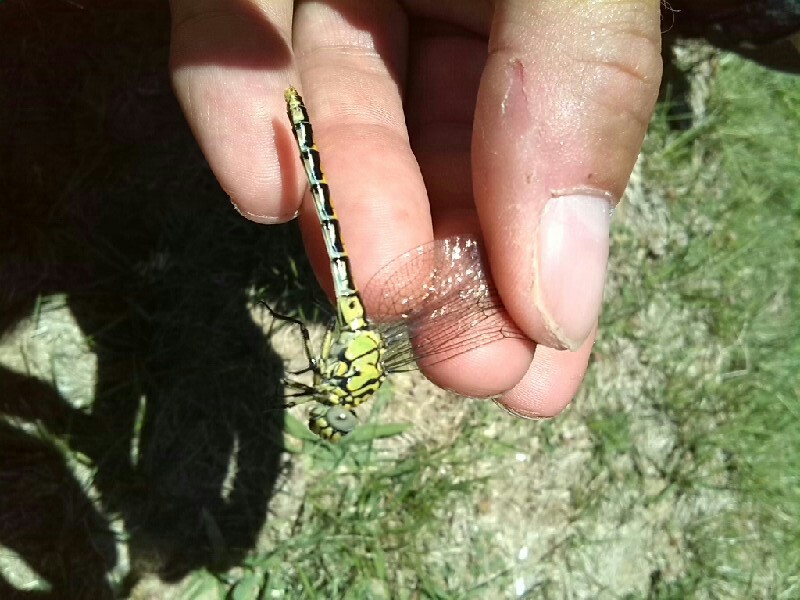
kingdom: Animalia
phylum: Arthropoda
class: Insecta
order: Odonata
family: Gomphidae
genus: Onychogomphus
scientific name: Onychogomphus forcipatus
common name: Small pincertail
